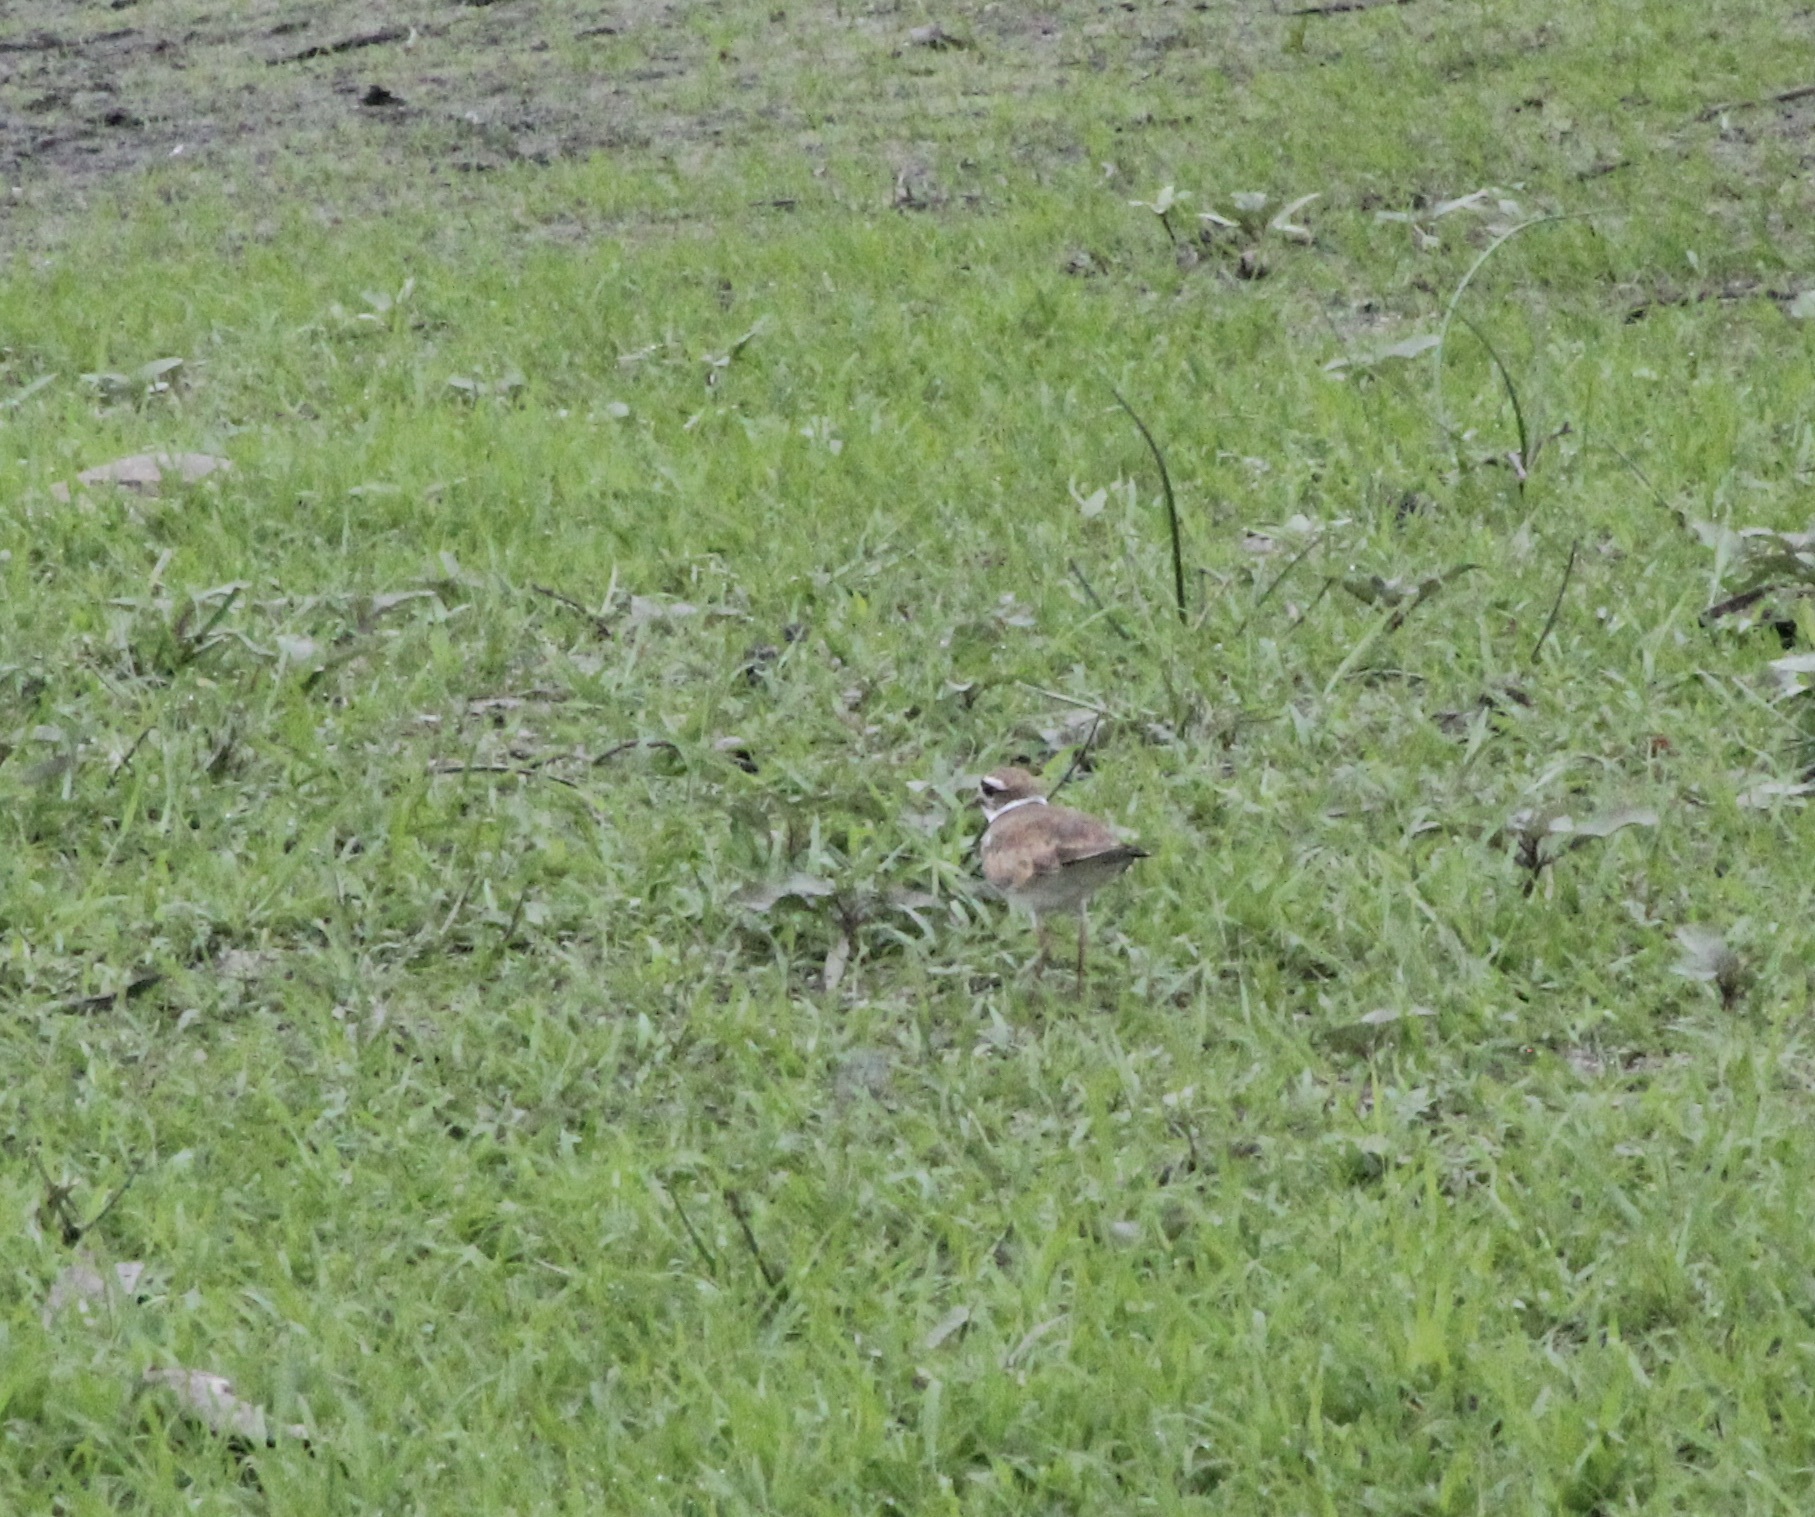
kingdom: Animalia
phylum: Chordata
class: Aves
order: Charadriiformes
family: Charadriidae
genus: Charadrius
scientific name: Charadrius vociferus
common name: Killdeer
